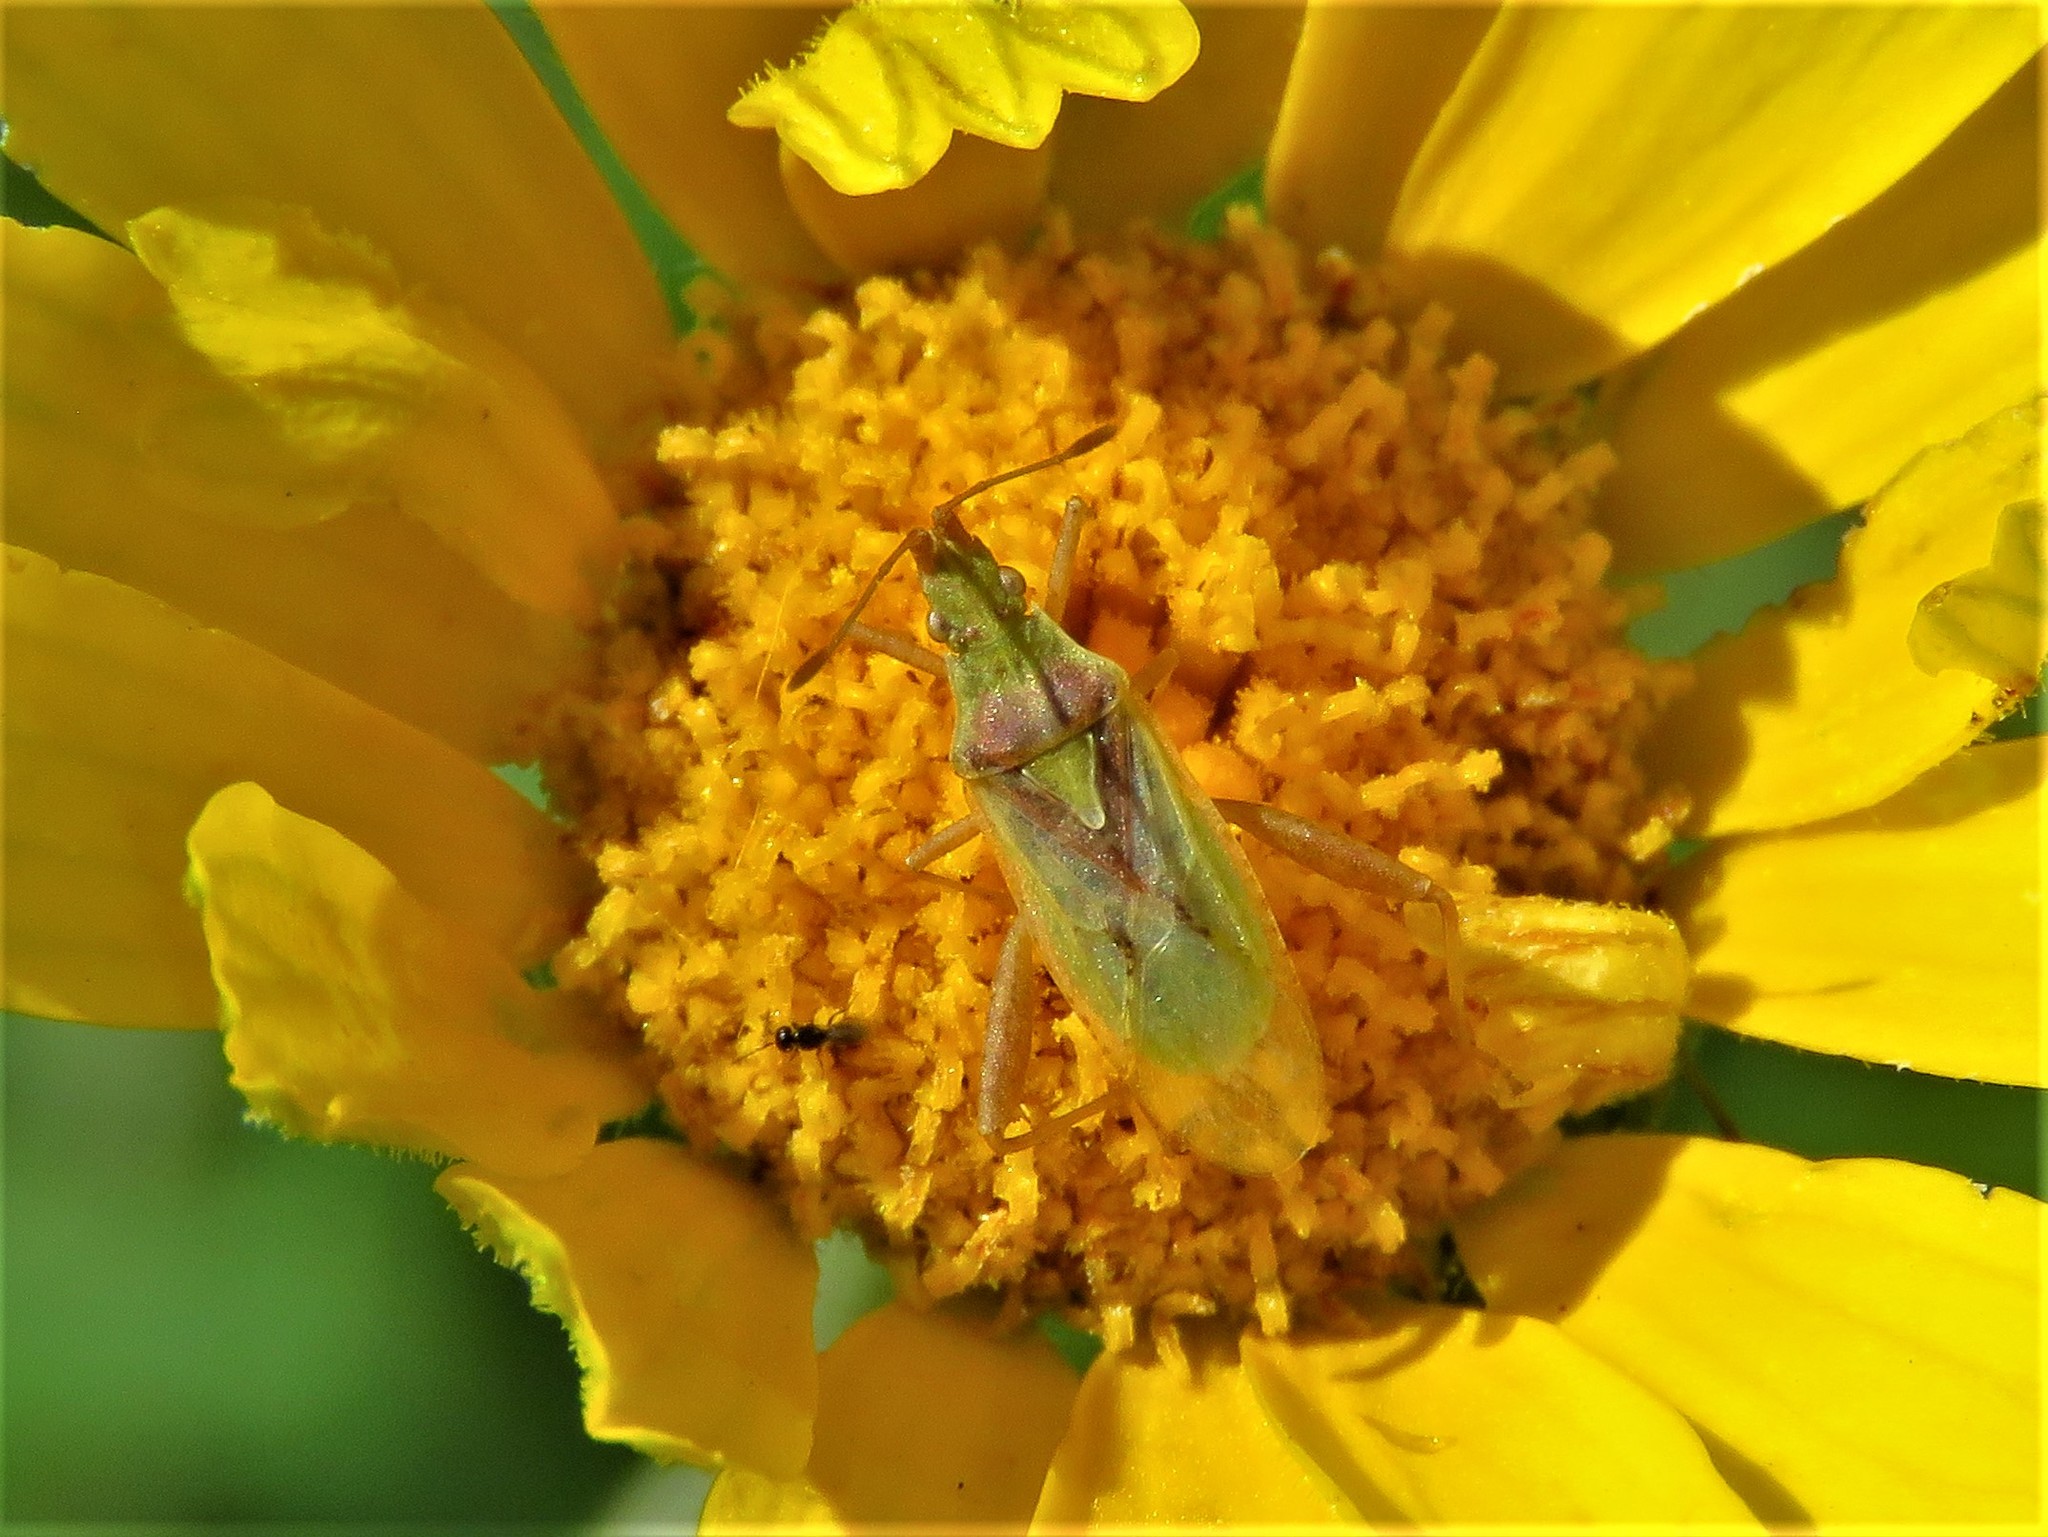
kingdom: Animalia
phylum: Arthropoda
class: Insecta
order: Hemiptera
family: Rhopalidae
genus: Harmostes
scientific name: Harmostes reflexulus
